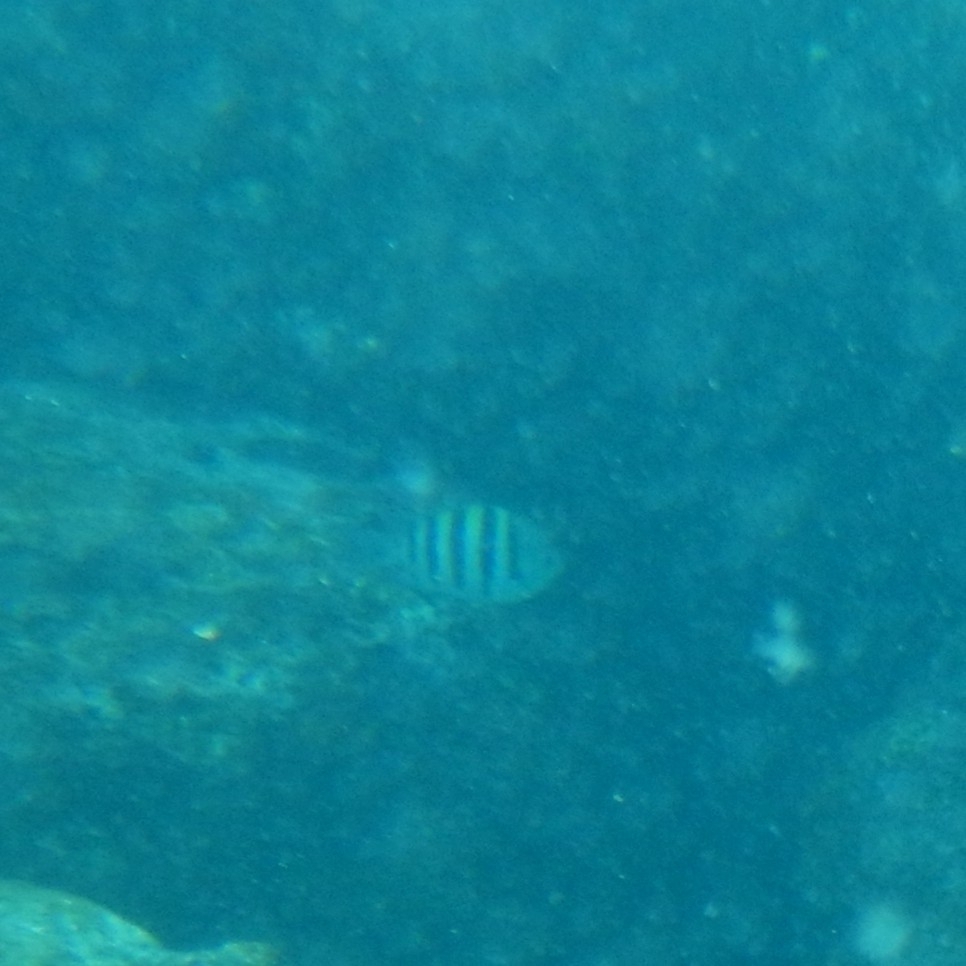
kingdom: Animalia
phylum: Chordata
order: Perciformes
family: Pomacentridae
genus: Abudefduf
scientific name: Abudefduf saxatilis
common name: Sergeant major
